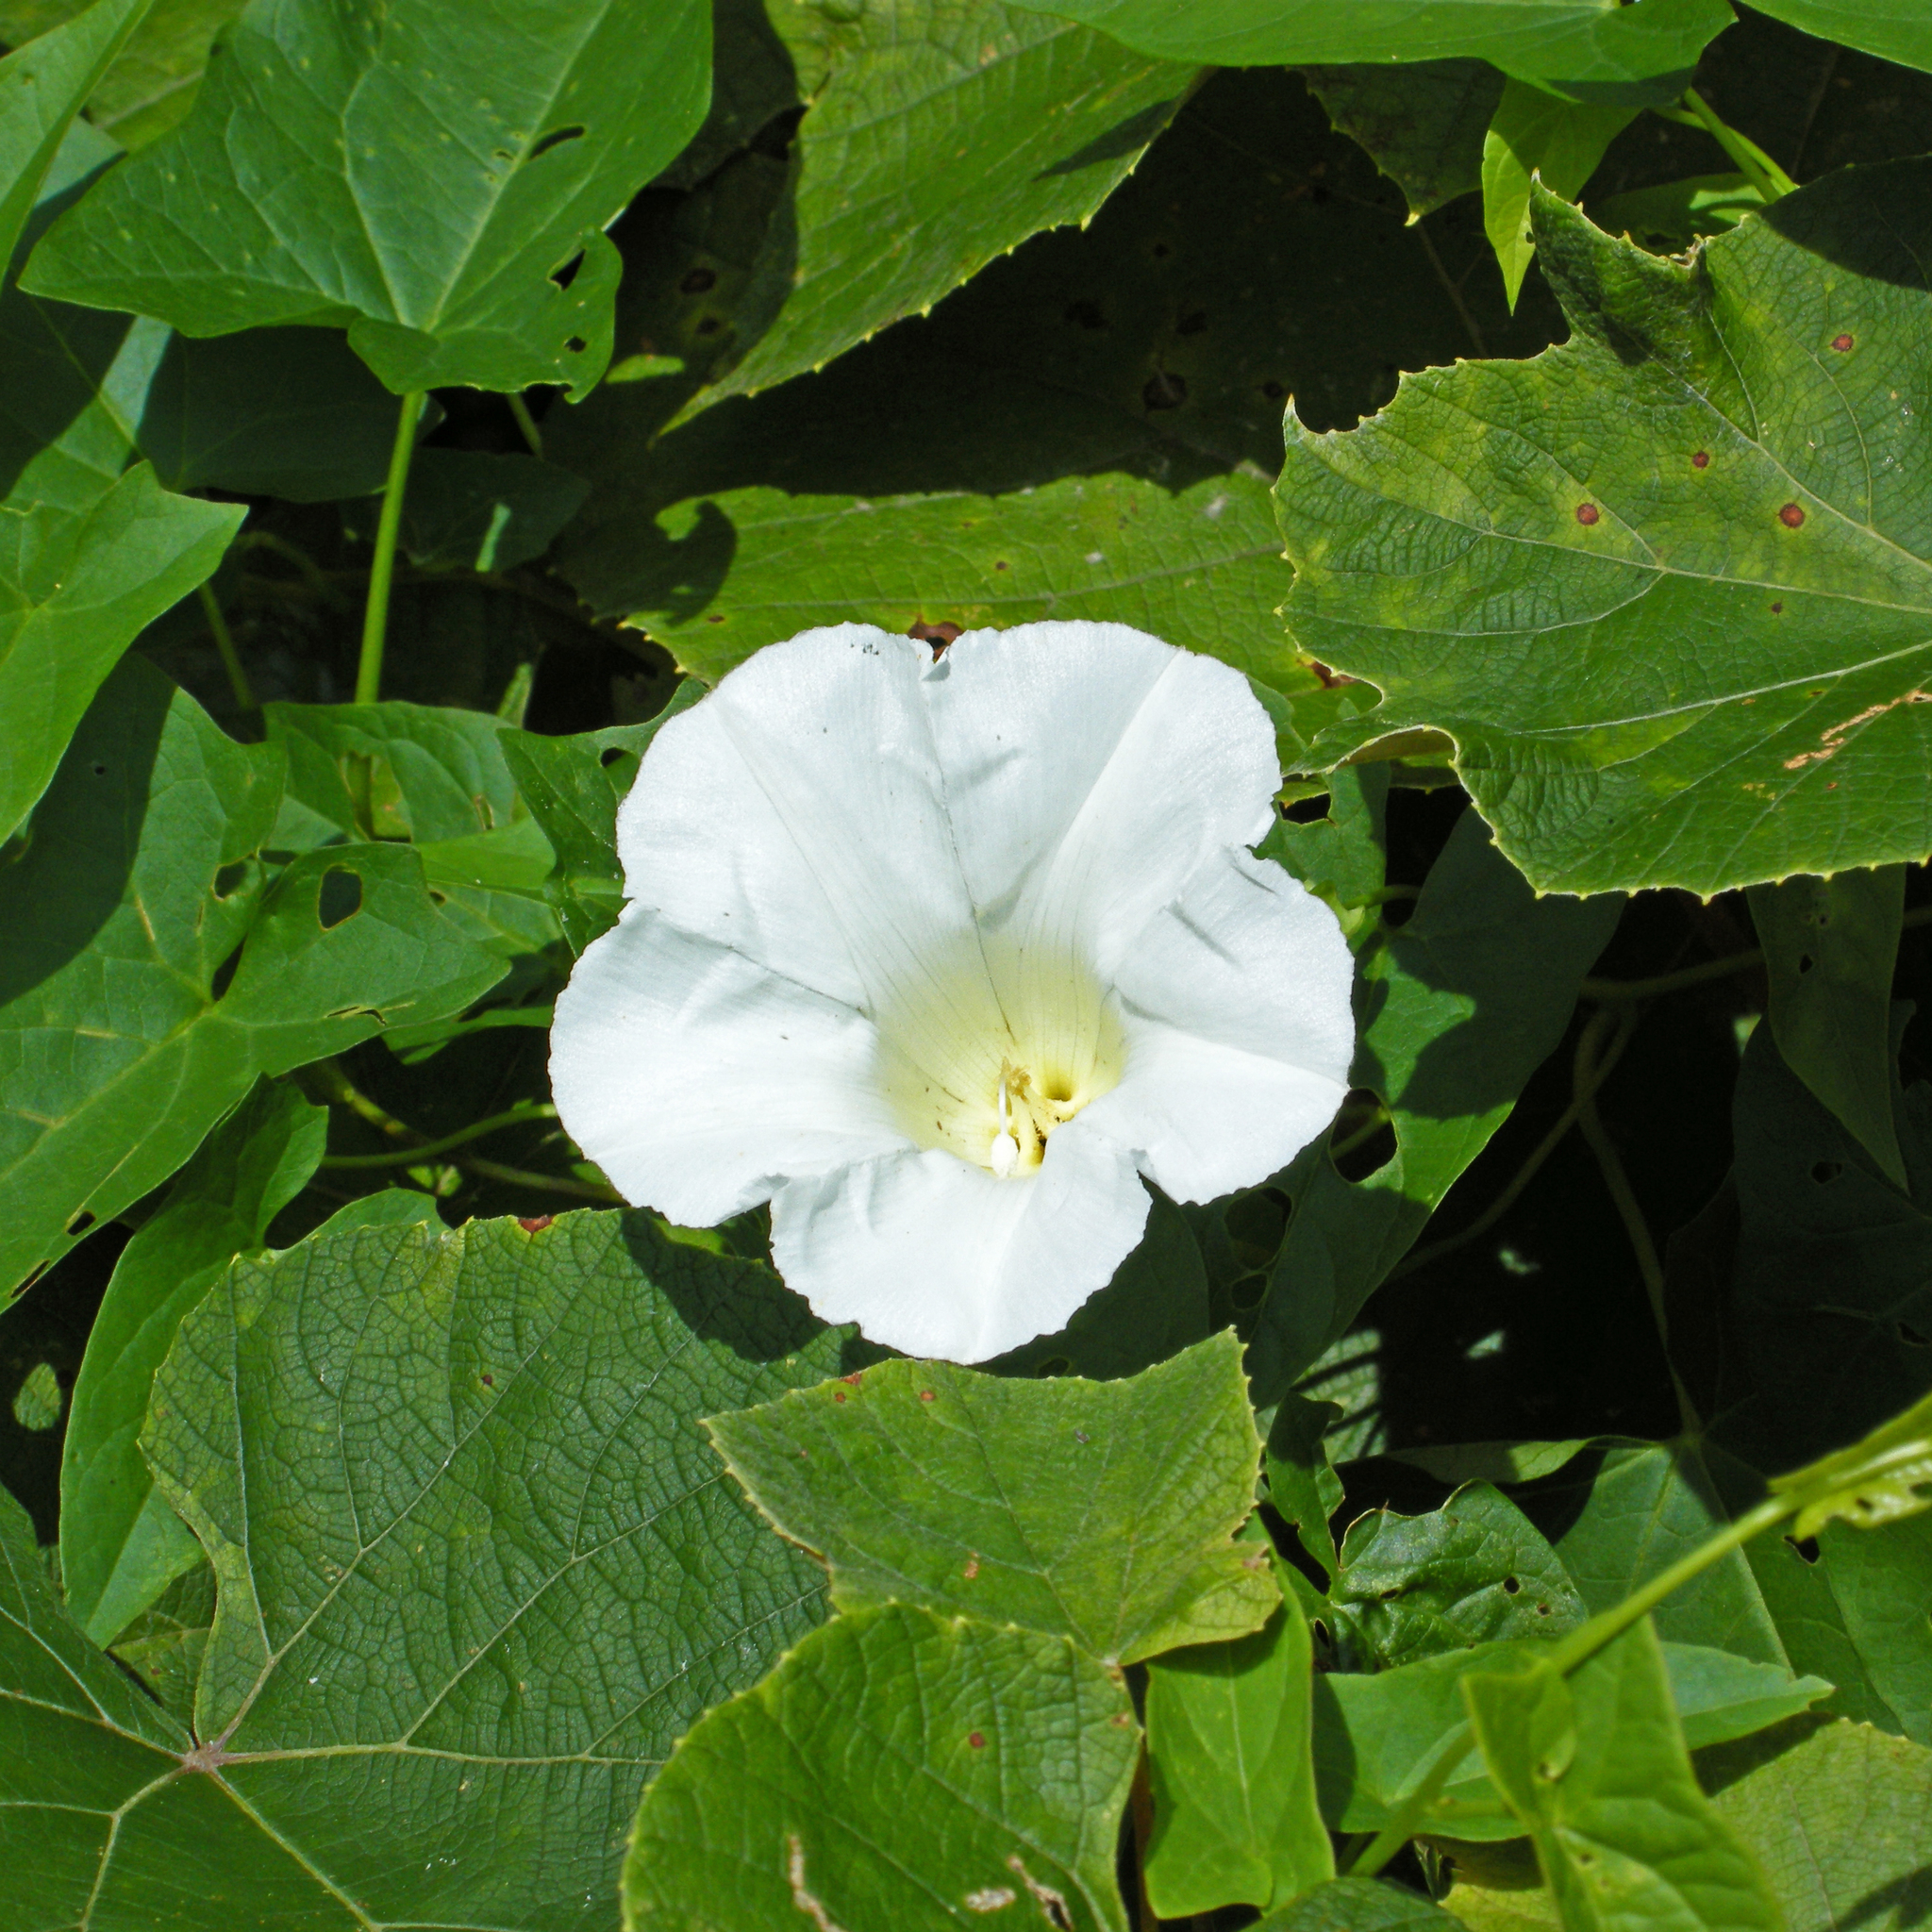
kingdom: Plantae
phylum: Tracheophyta
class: Magnoliopsida
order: Solanales
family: Convolvulaceae
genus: Calystegia
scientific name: Calystegia sepium
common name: Hedge bindweed
